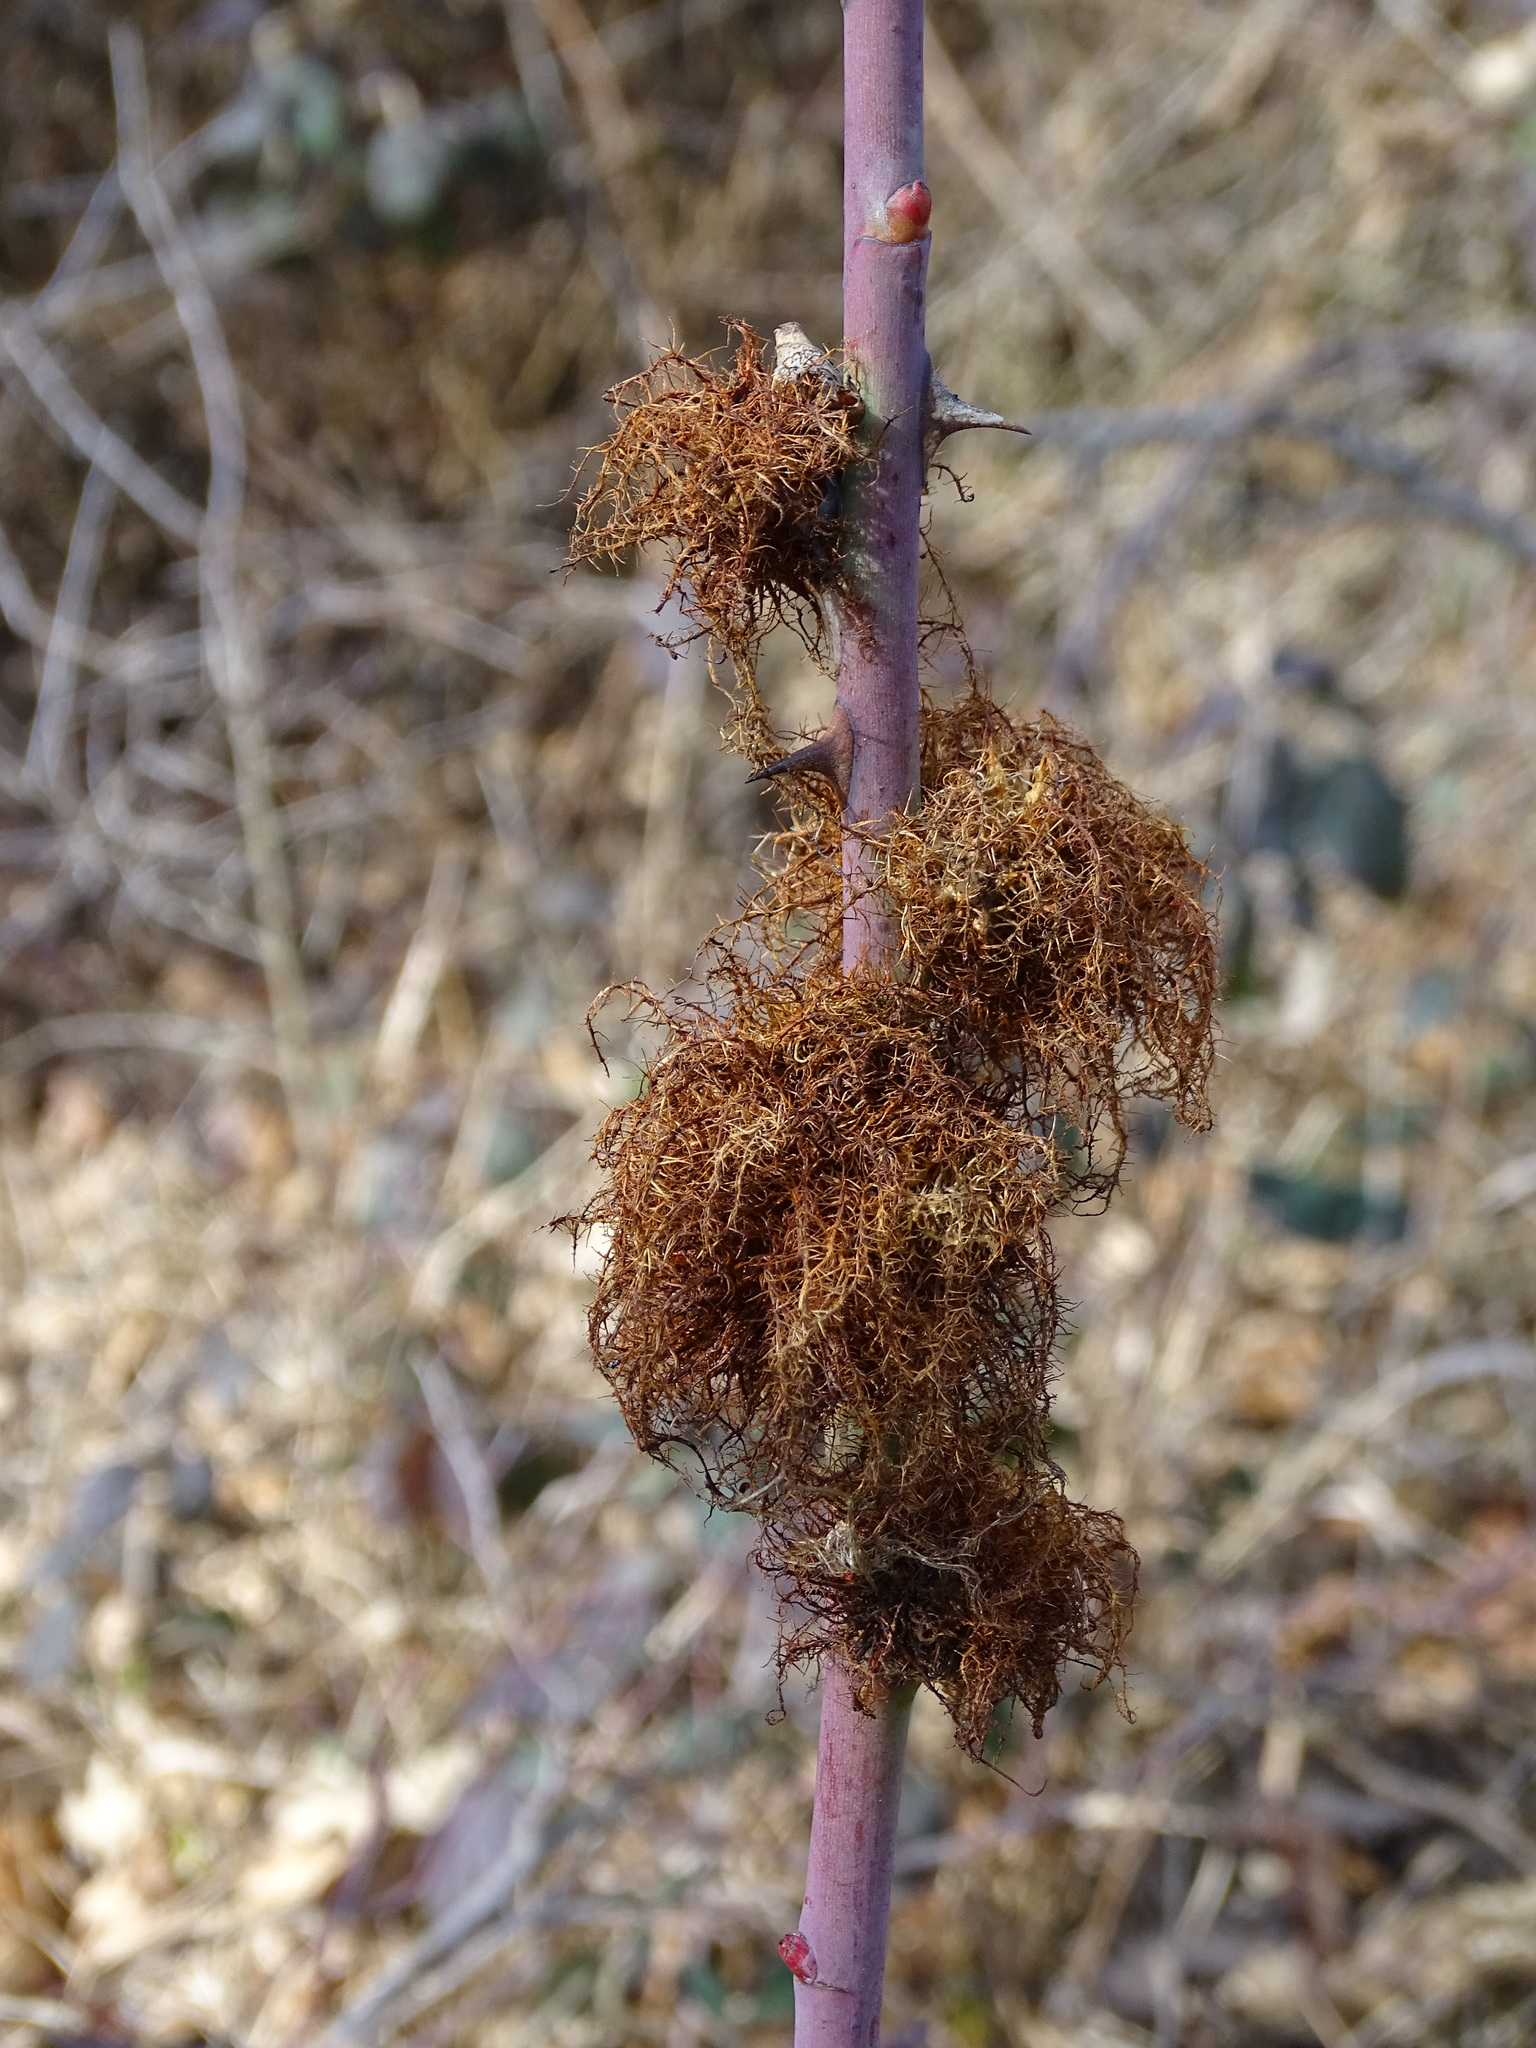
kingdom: Animalia
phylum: Arthropoda
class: Insecta
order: Hymenoptera
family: Cynipidae
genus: Diplolepis
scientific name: Diplolepis rosae
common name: Bedeguar gall
